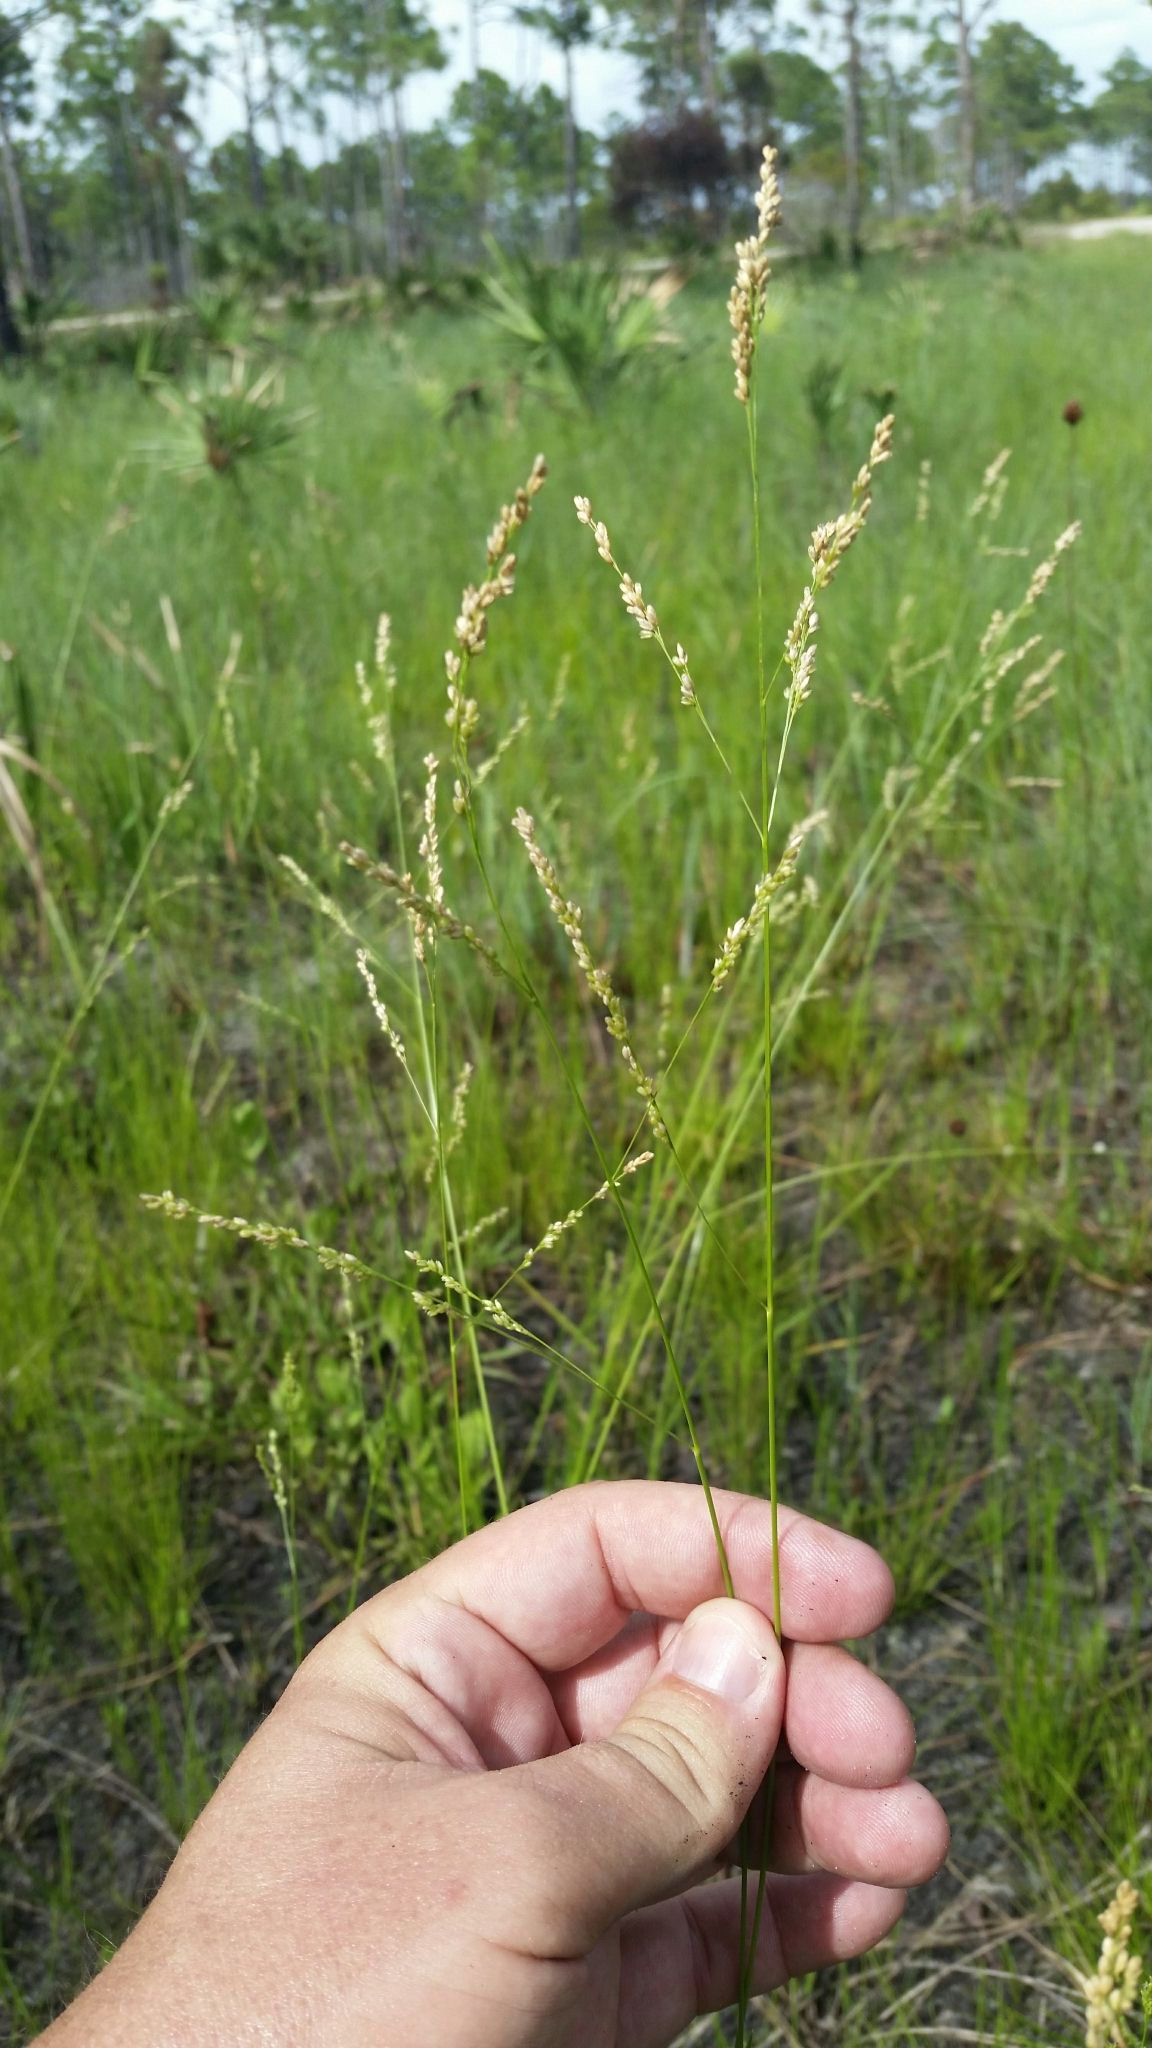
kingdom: Plantae
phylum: Tracheophyta
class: Liliopsida
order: Poales
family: Poaceae
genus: Steinchisma
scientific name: Steinchisma hians
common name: Gaping panic grass
